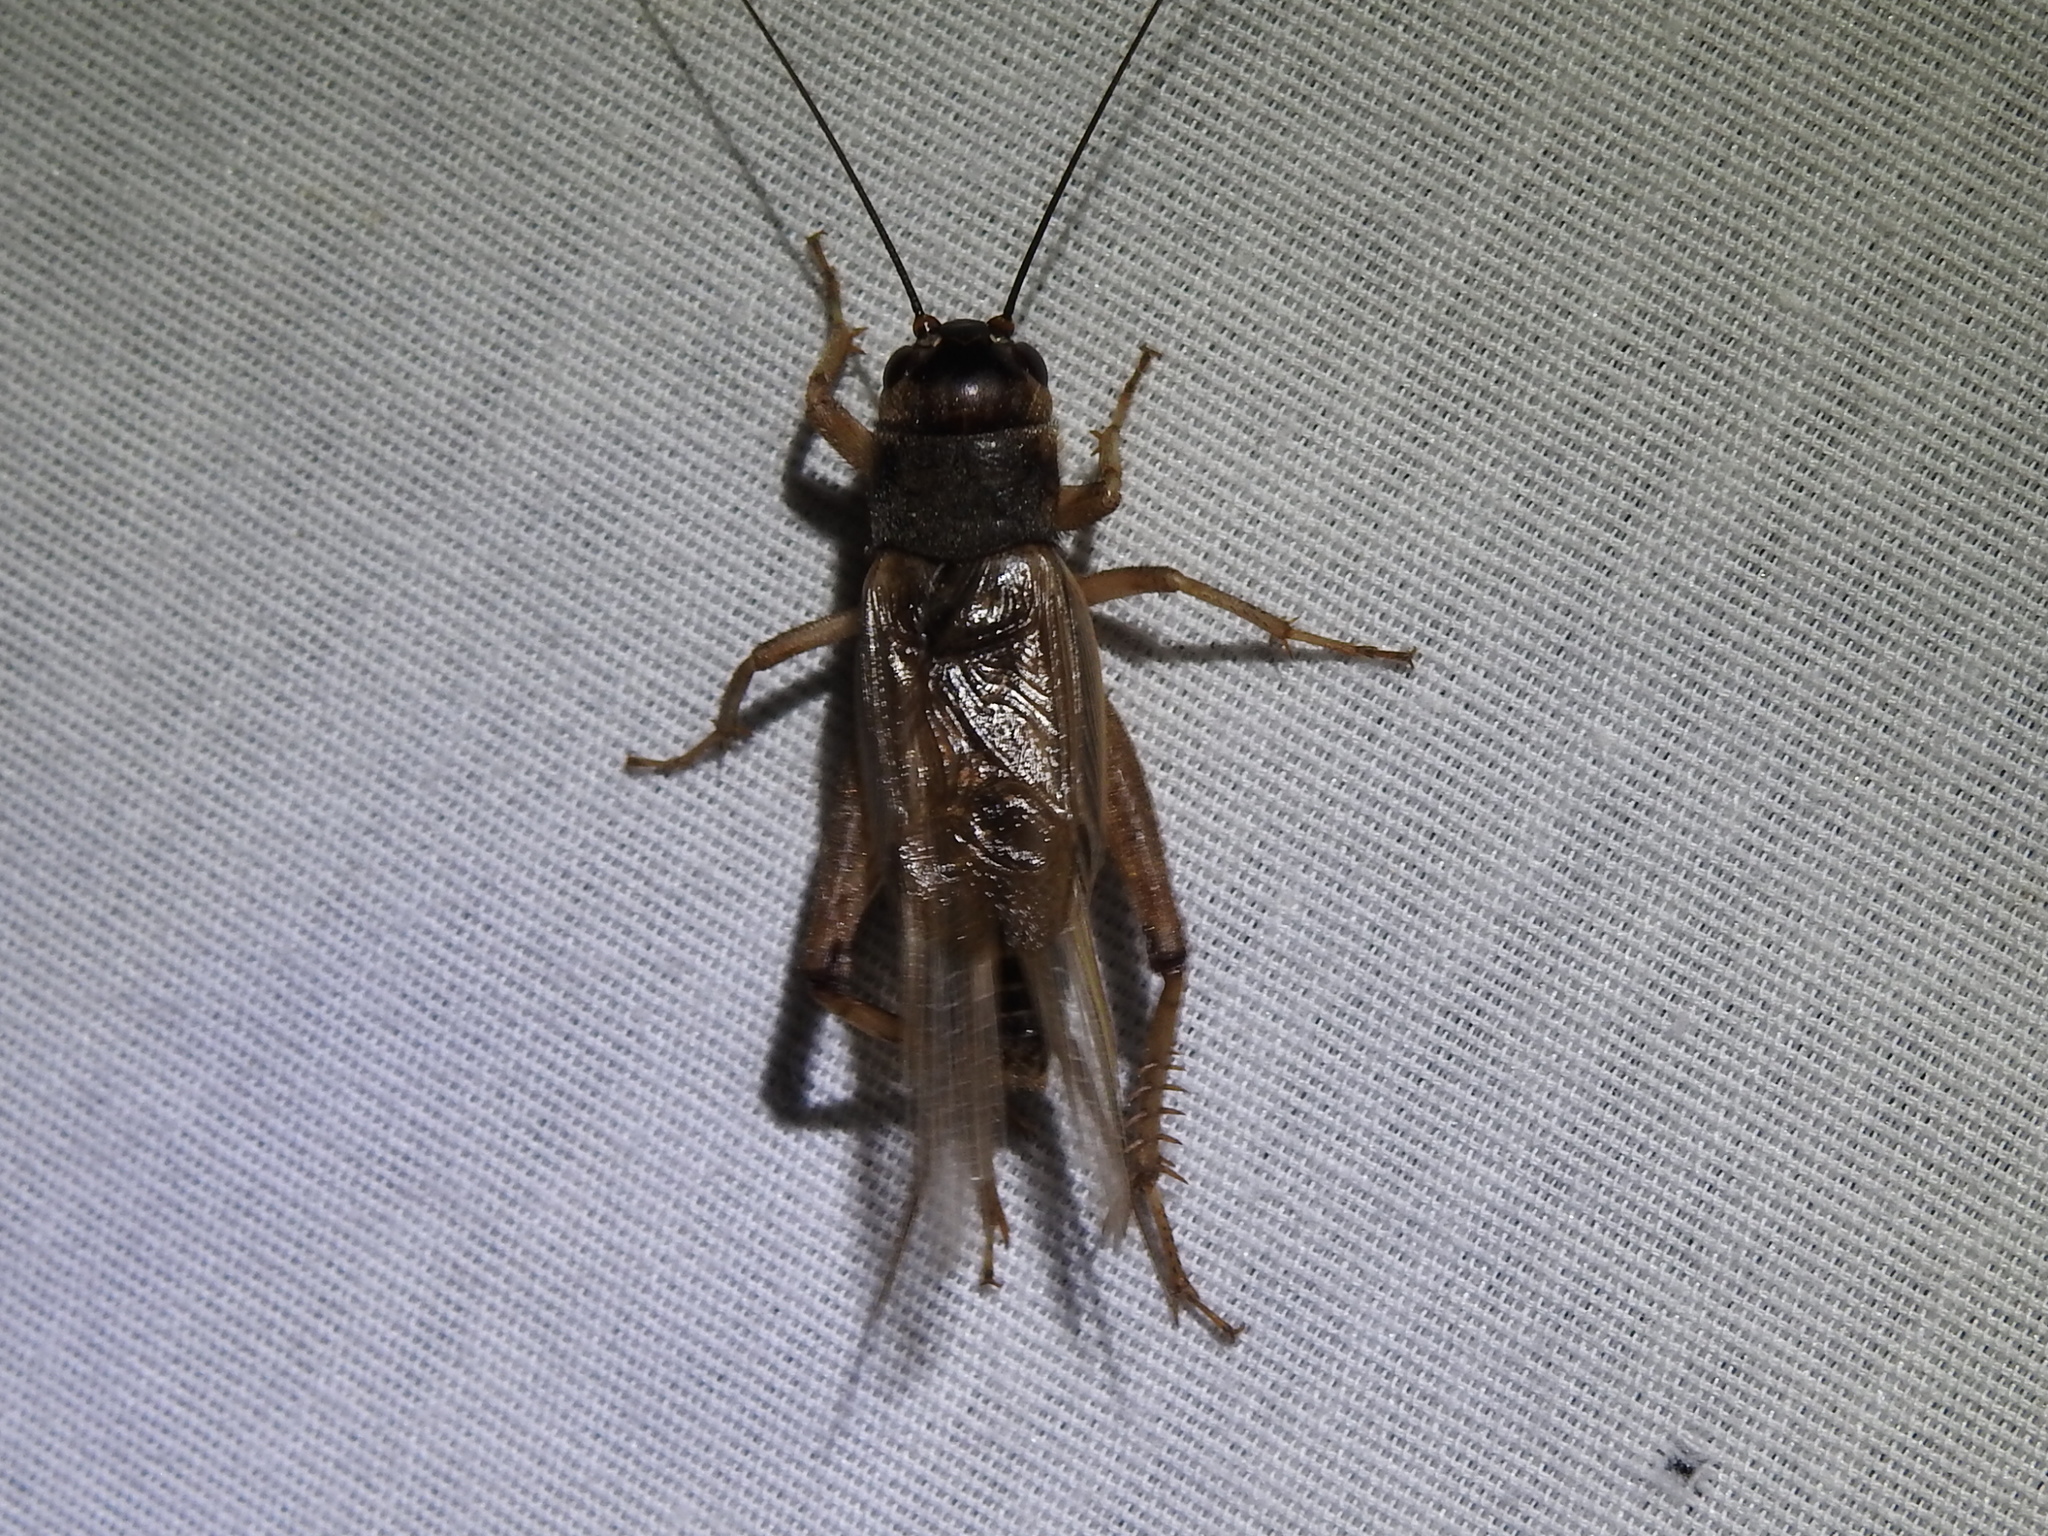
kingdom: Animalia
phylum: Arthropoda
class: Insecta
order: Orthoptera
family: Gryllidae
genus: Gryllus
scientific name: Gryllus assimilis
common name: Jamaican field cricket
